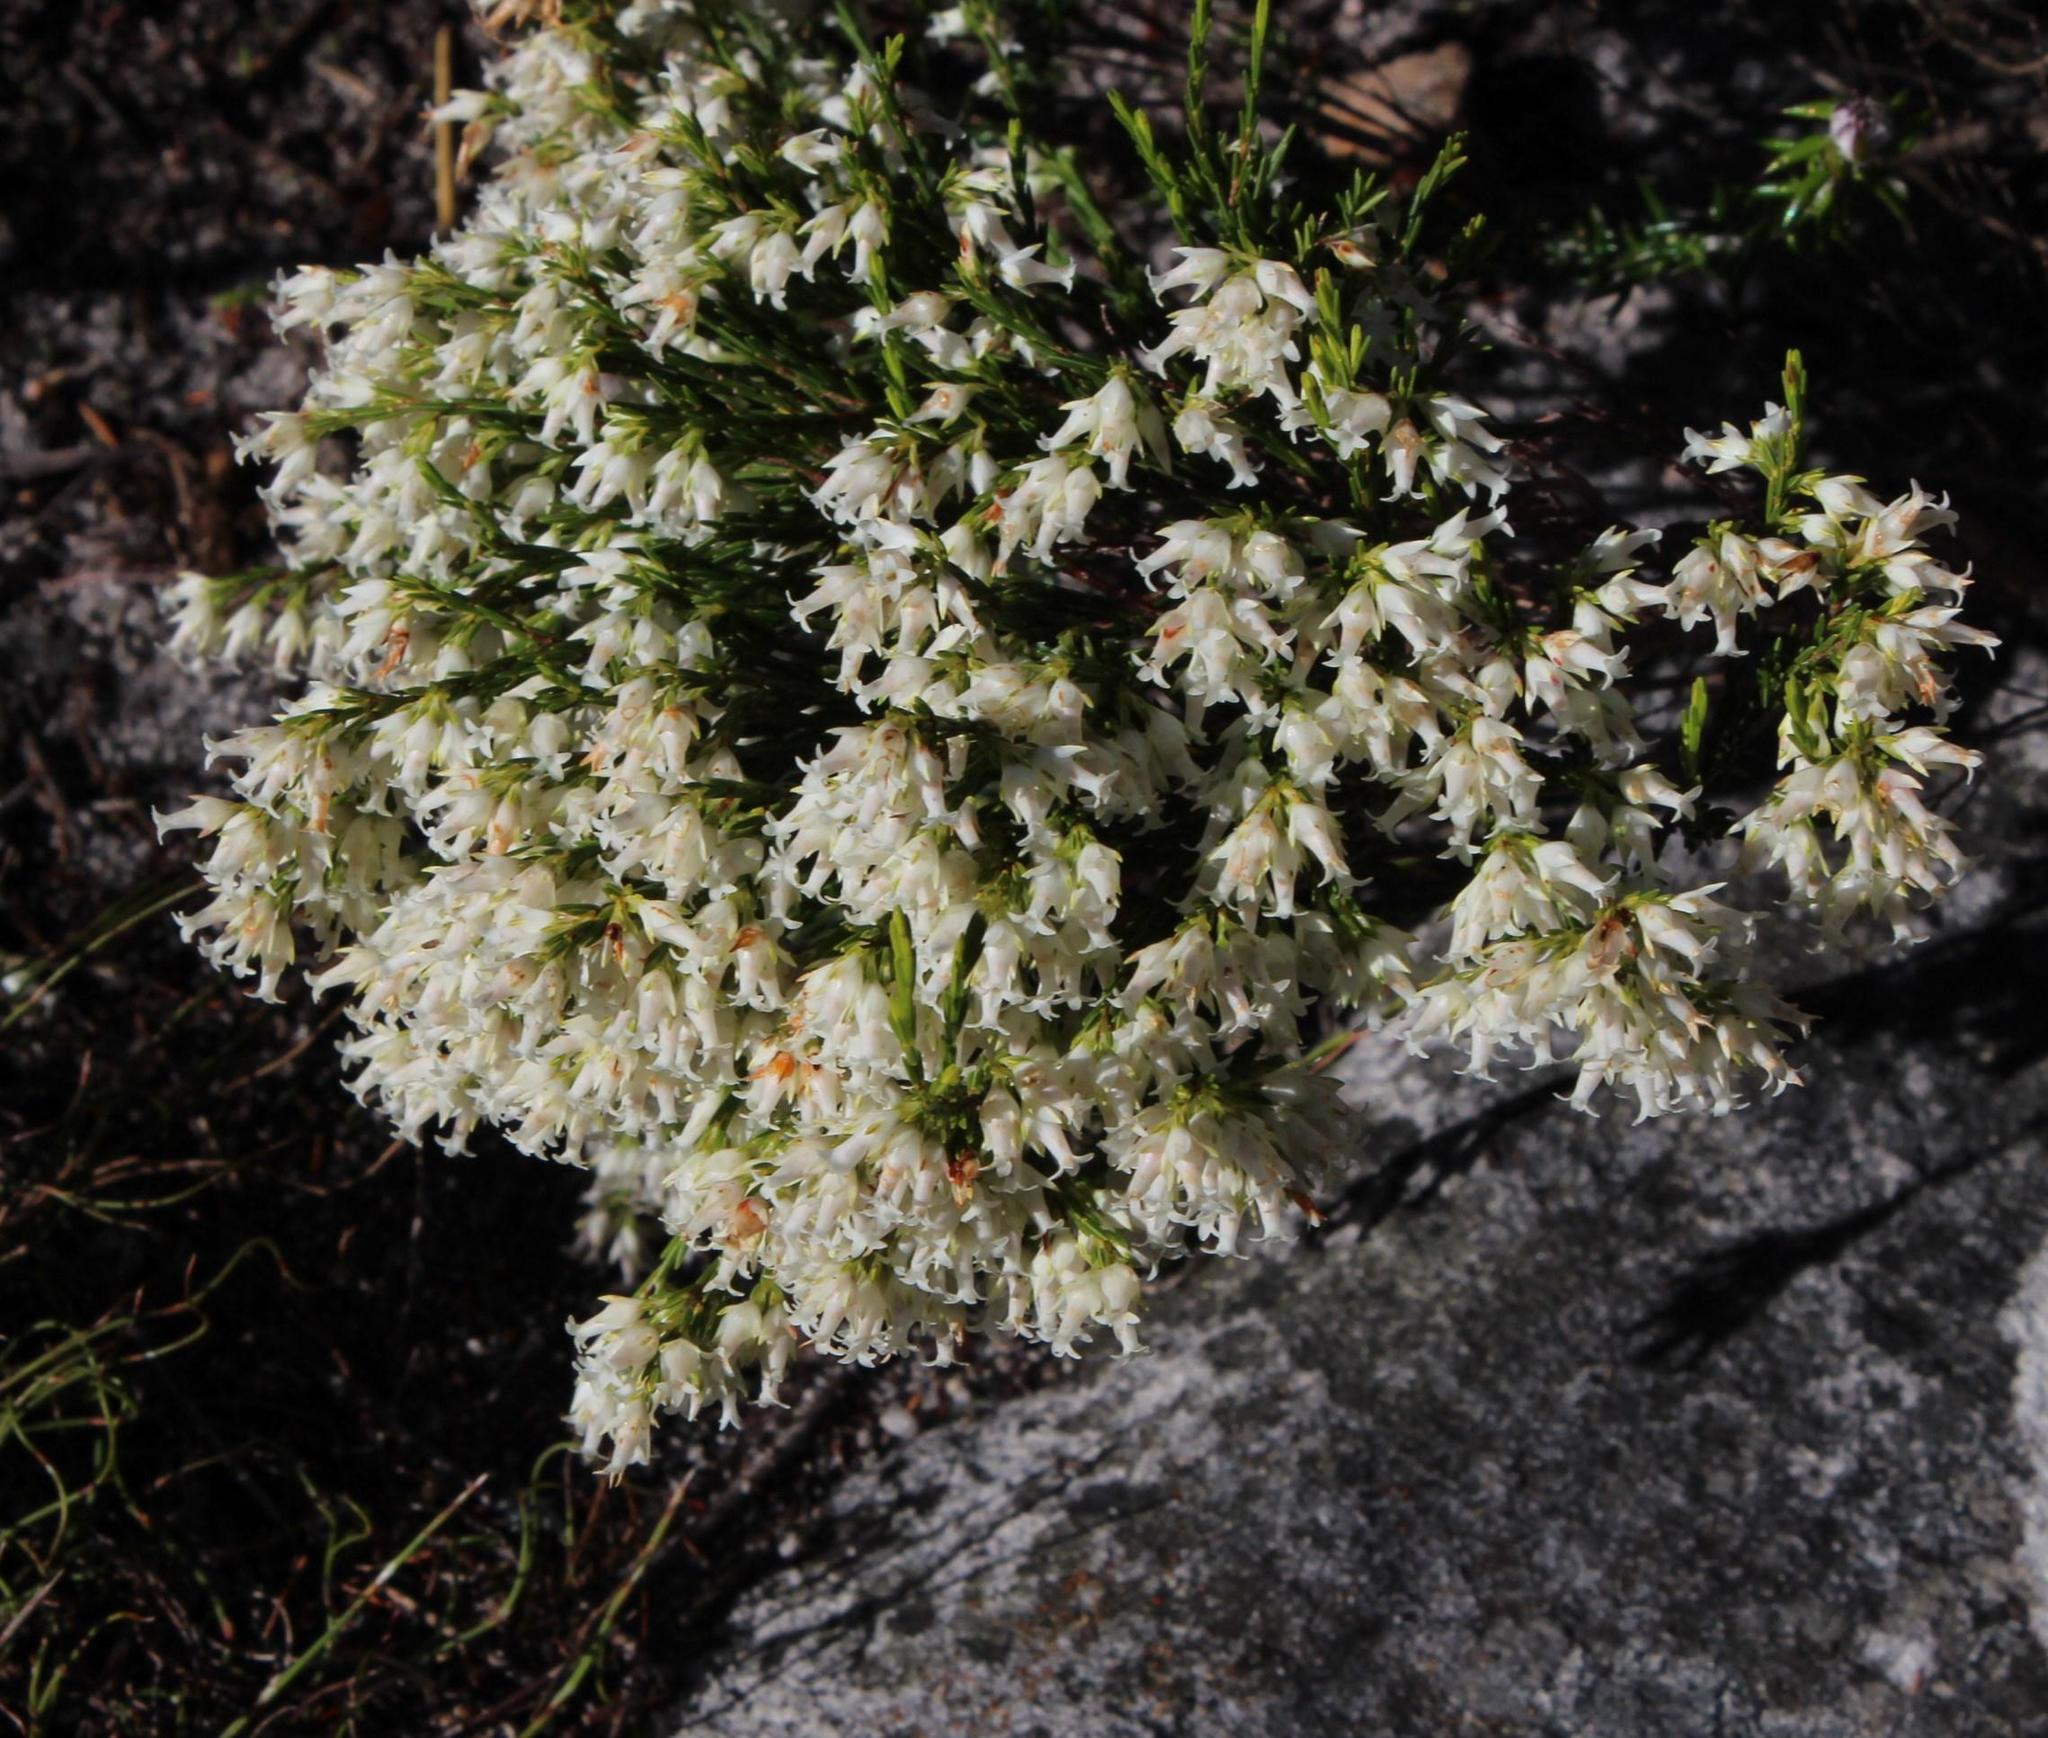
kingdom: Plantae
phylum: Tracheophyta
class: Magnoliopsida
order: Ericales
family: Ericaceae
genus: Erica
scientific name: Erica lutea
